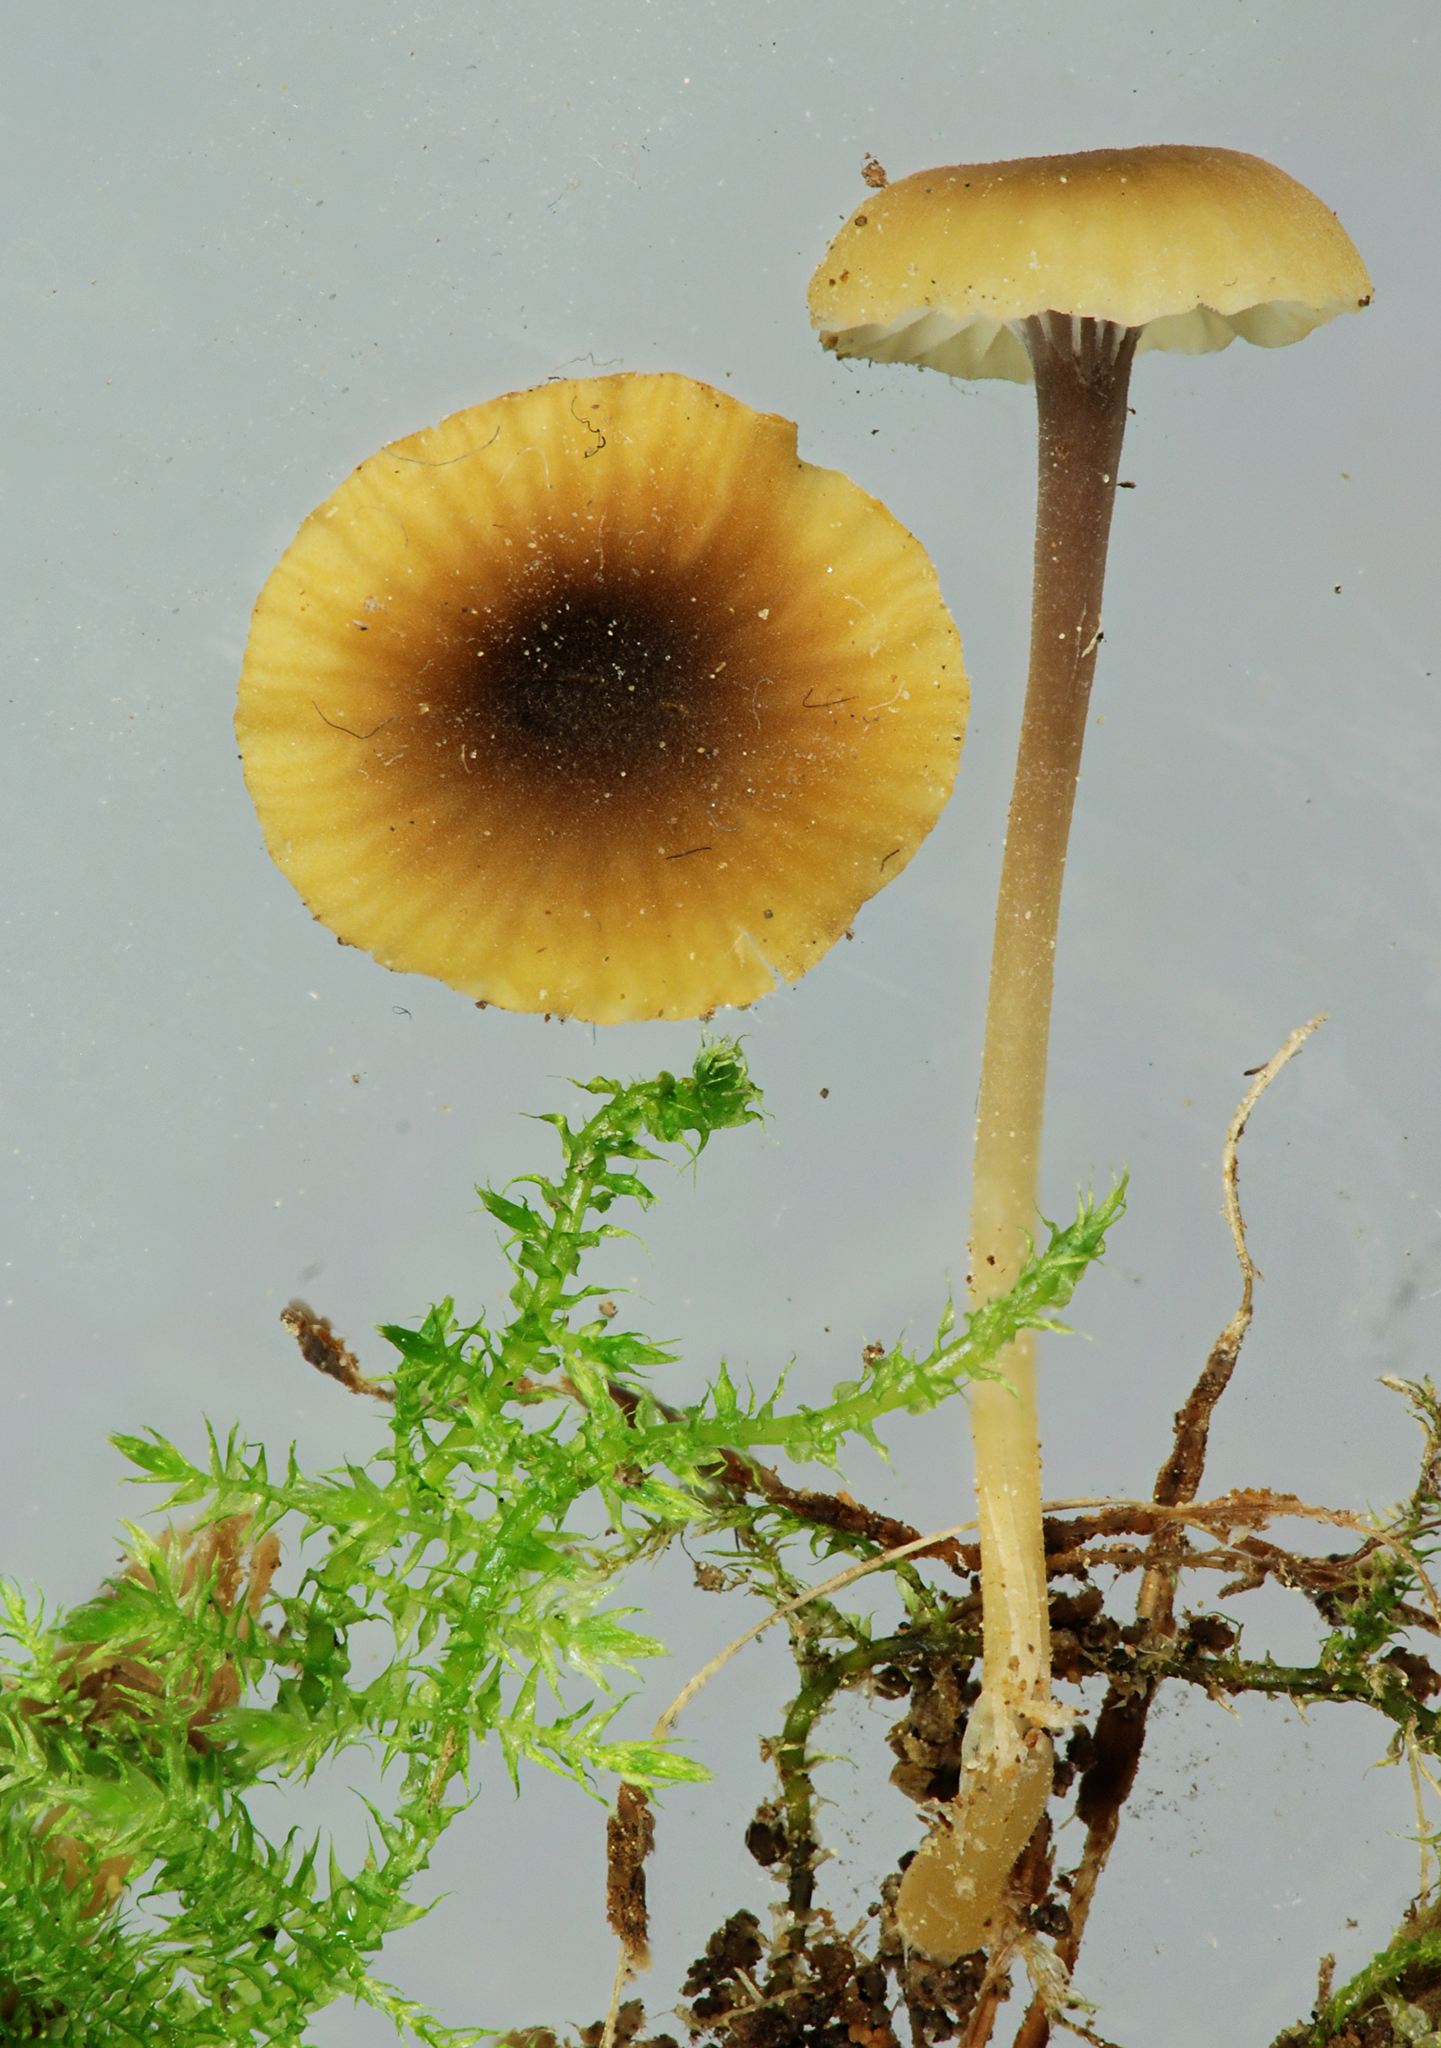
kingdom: Fungi
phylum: Basidiomycota
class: Agaricomycetes
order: Hymenochaetales
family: Rickenellaceae
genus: Rickenella
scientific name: Rickenella swartzii
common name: Collared mosscap
